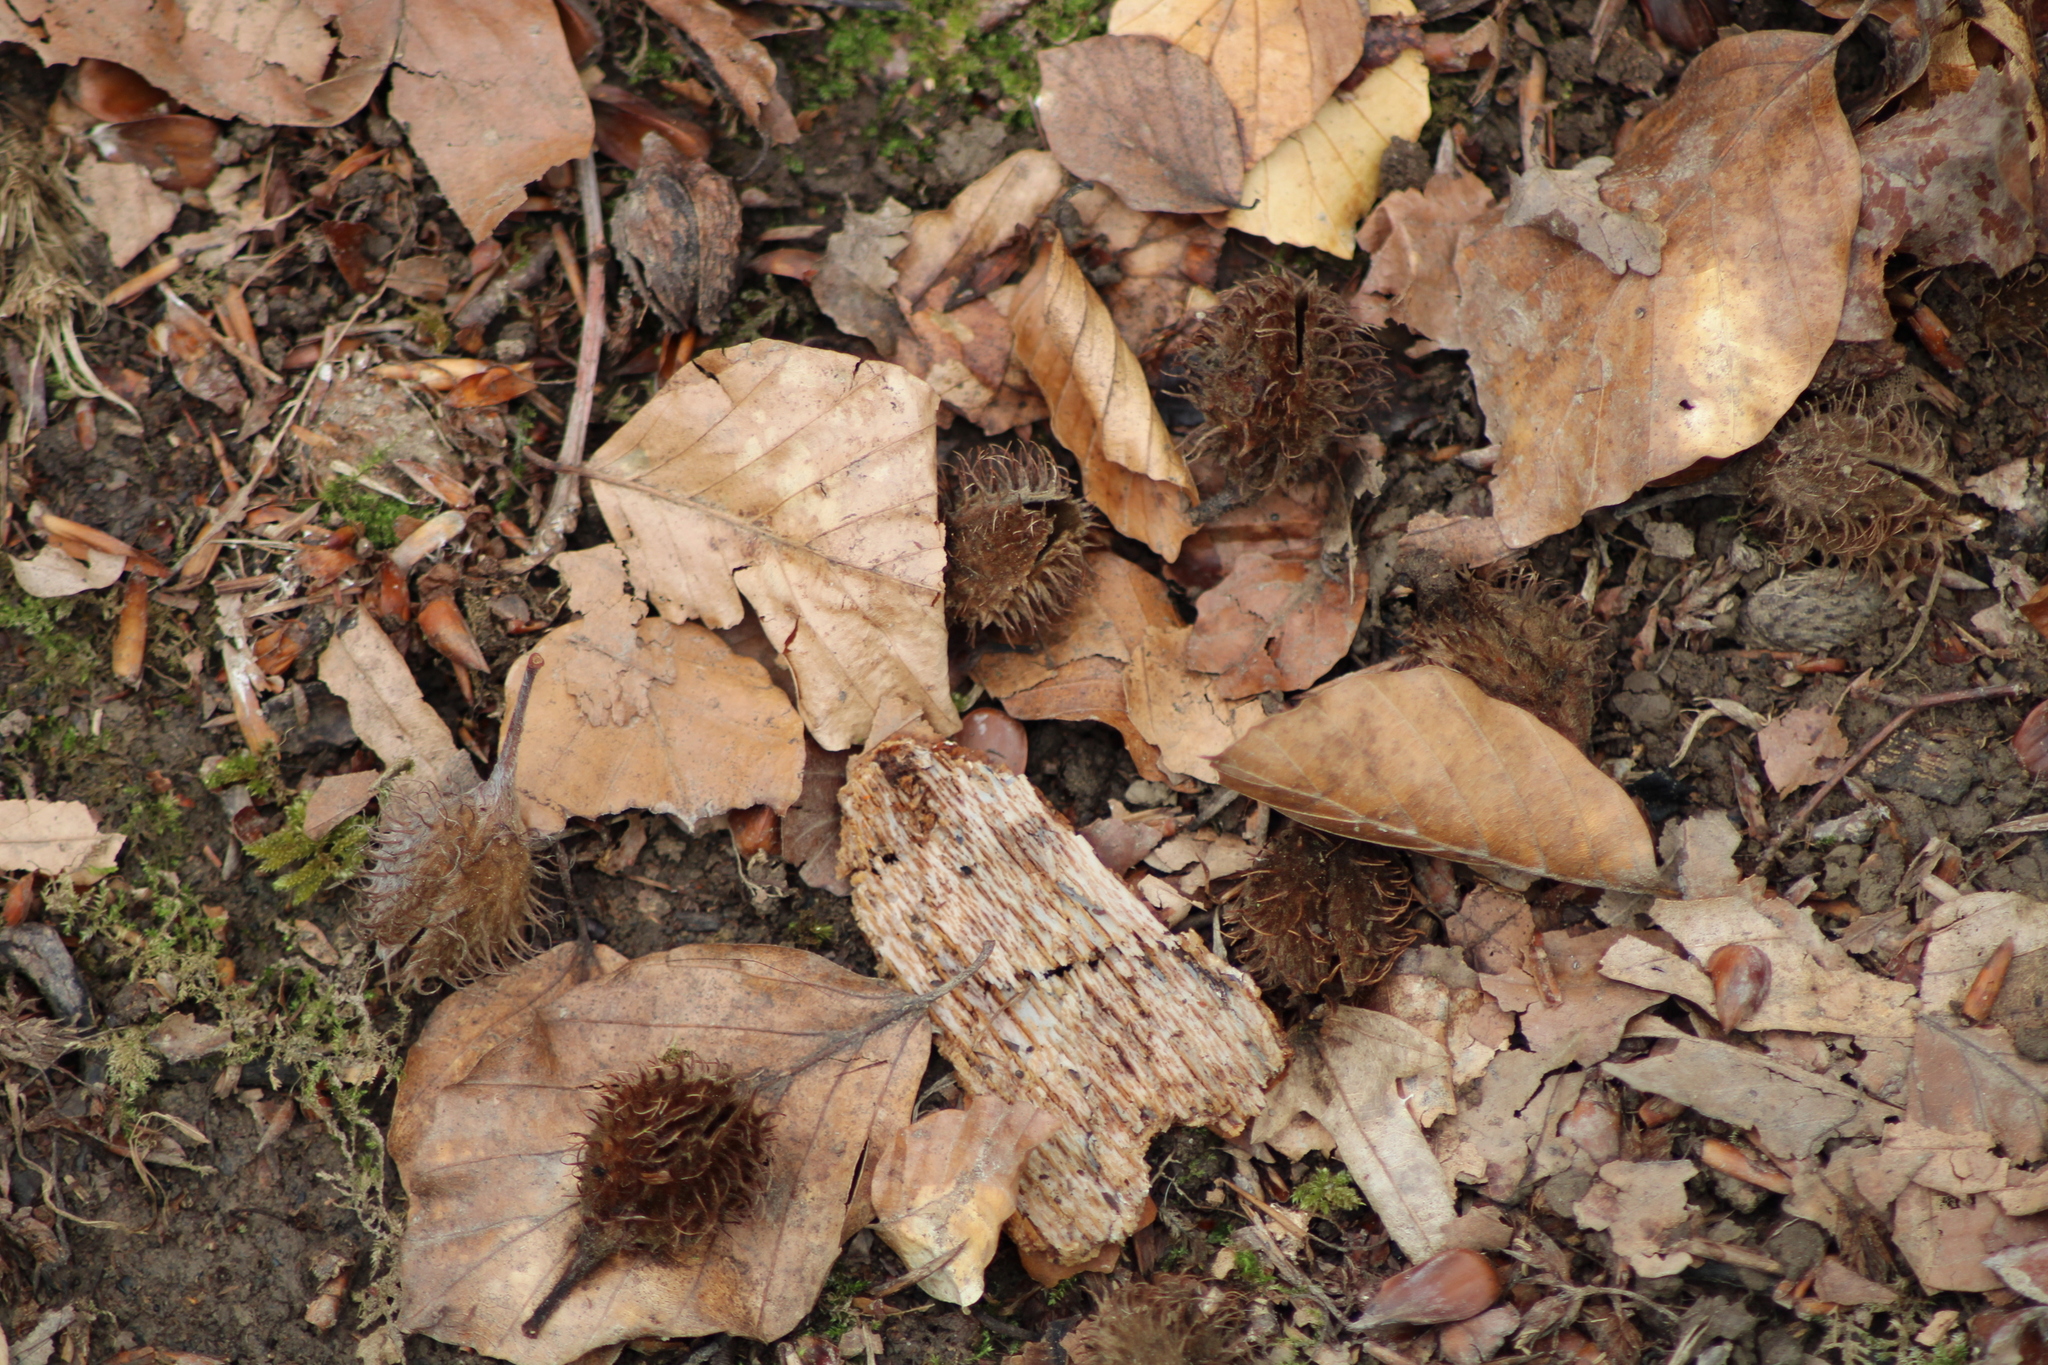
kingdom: Plantae
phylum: Tracheophyta
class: Magnoliopsida
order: Fagales
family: Fagaceae
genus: Fagus
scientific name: Fagus sylvatica
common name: Beech
